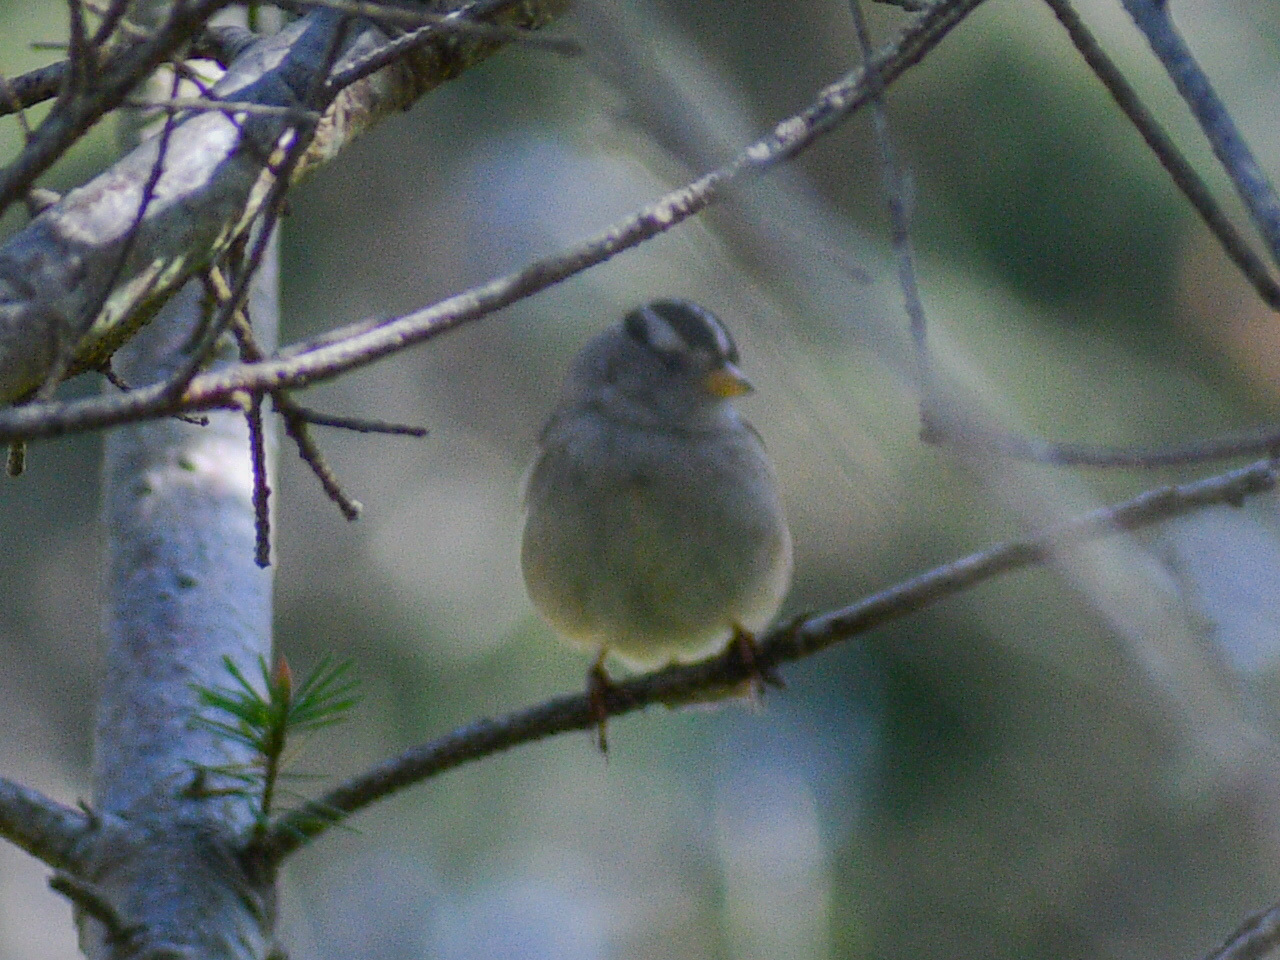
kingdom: Animalia
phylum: Chordata
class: Aves
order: Passeriformes
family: Passerellidae
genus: Zonotrichia
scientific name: Zonotrichia leucophrys
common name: White-crowned sparrow
